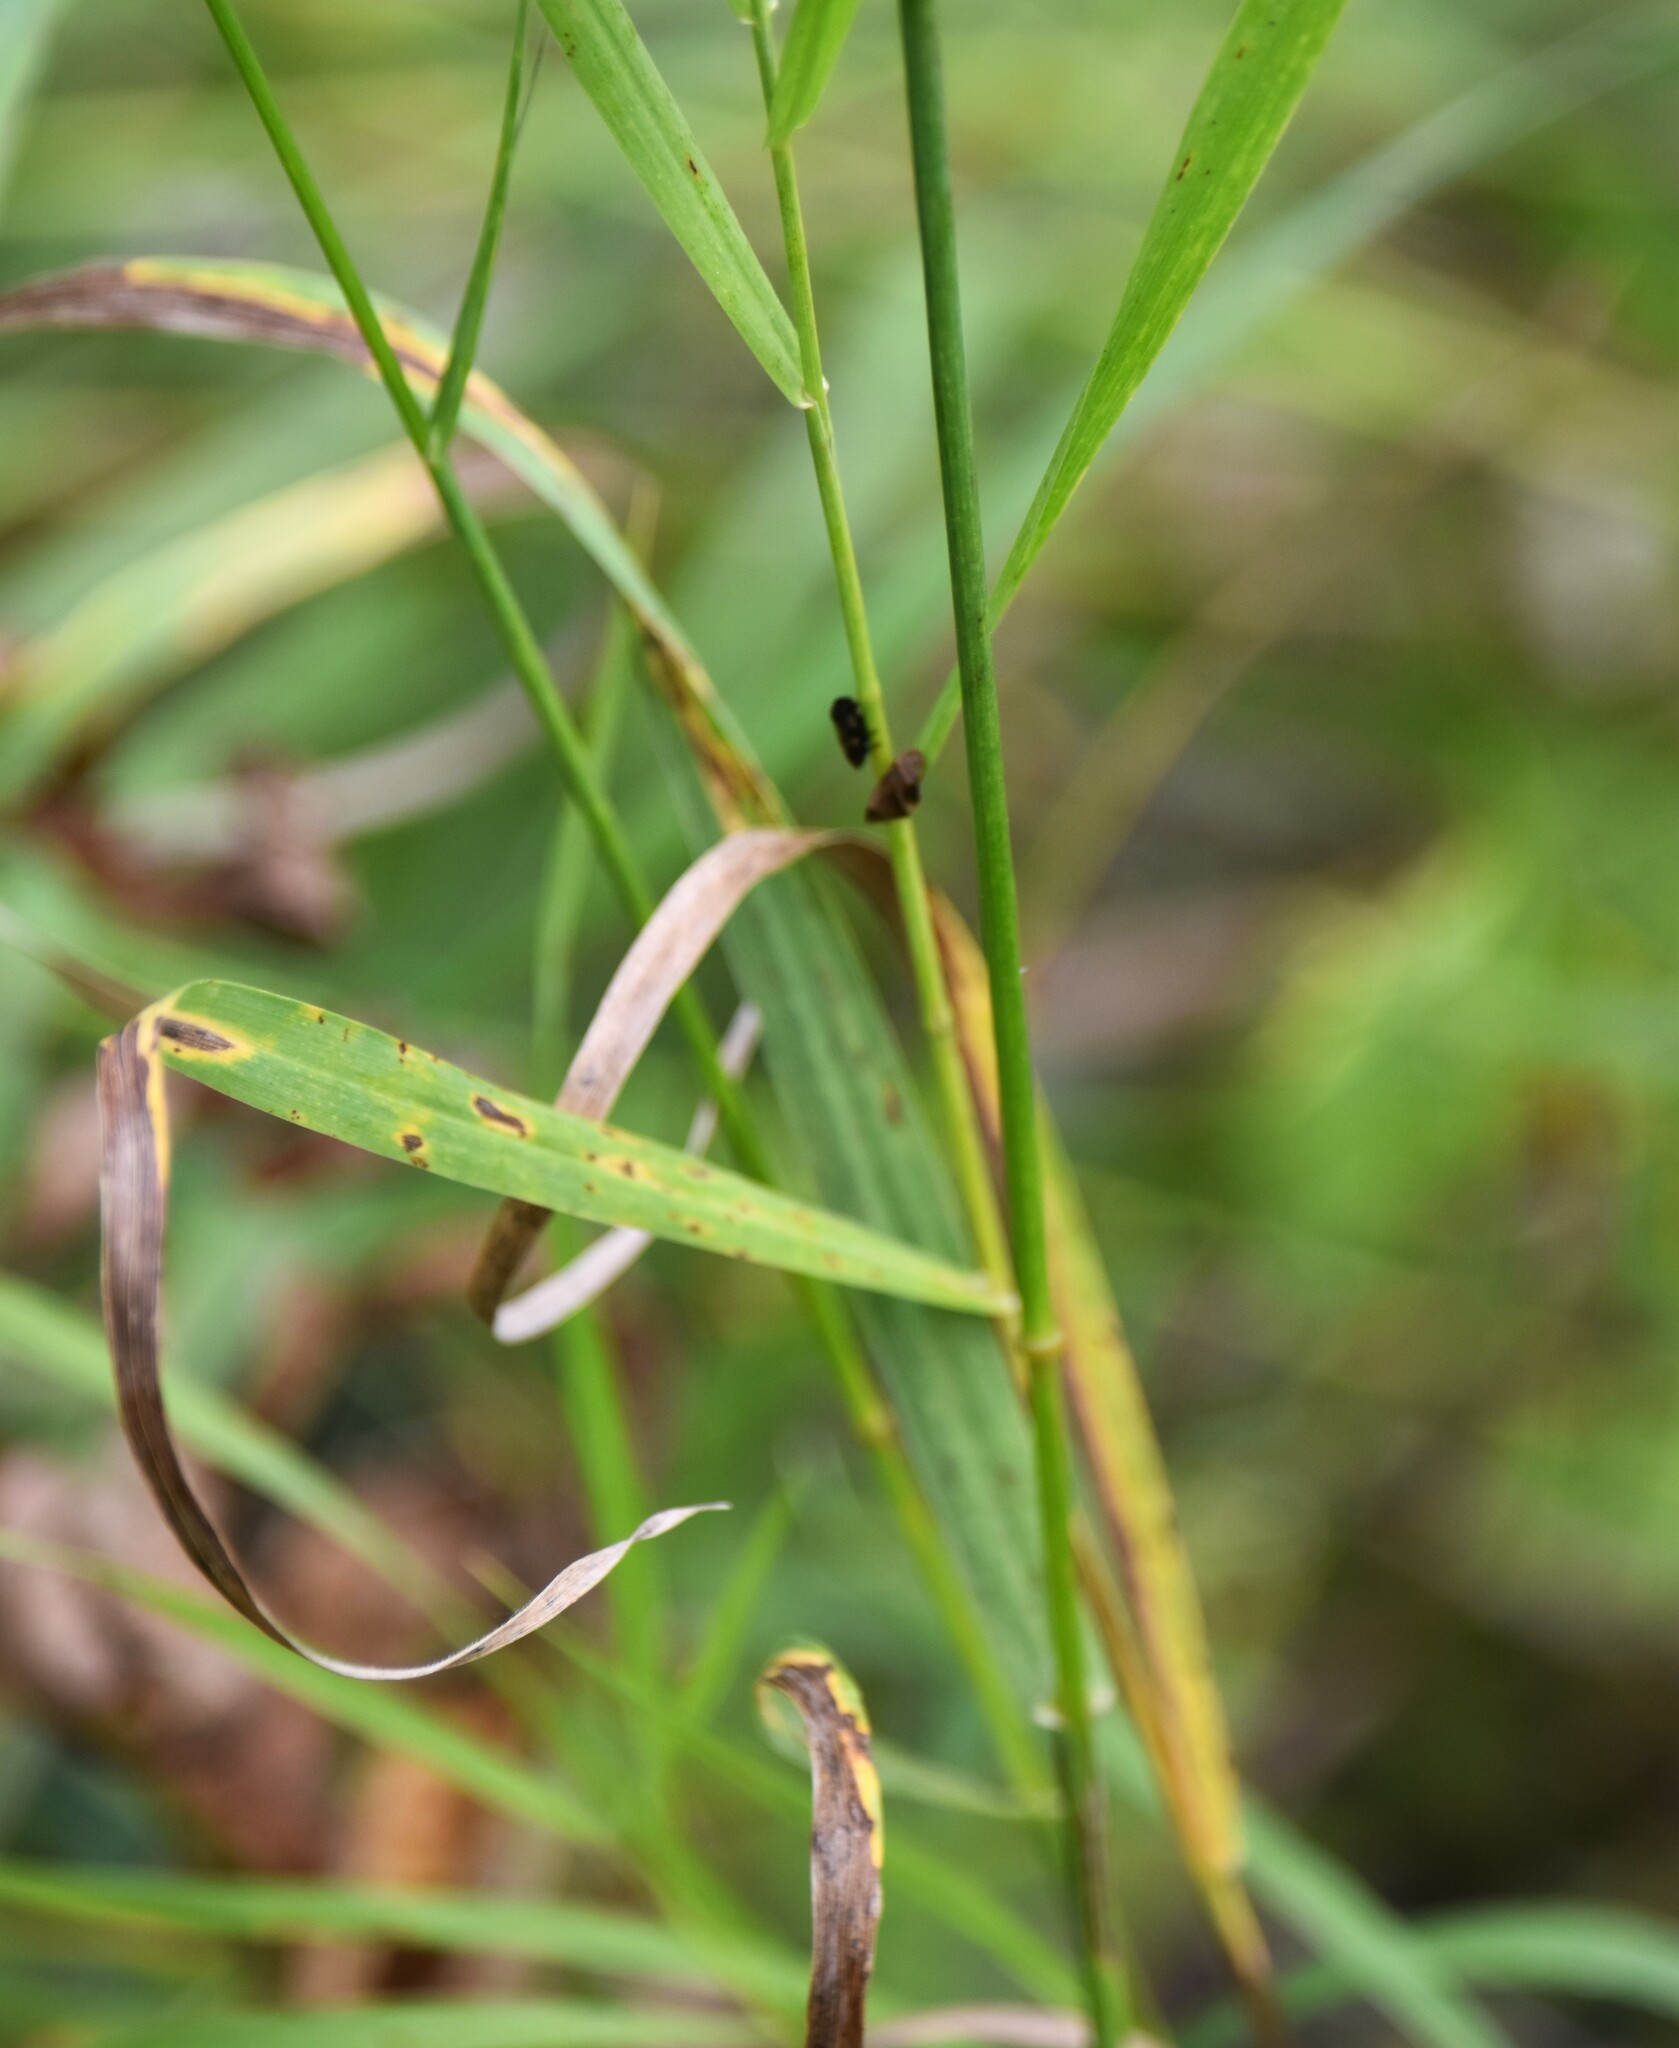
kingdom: Plantae
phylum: Tracheophyta
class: Liliopsida
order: Poales
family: Poaceae
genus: Bromus
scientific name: Bromus inermis
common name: Smooth brome
